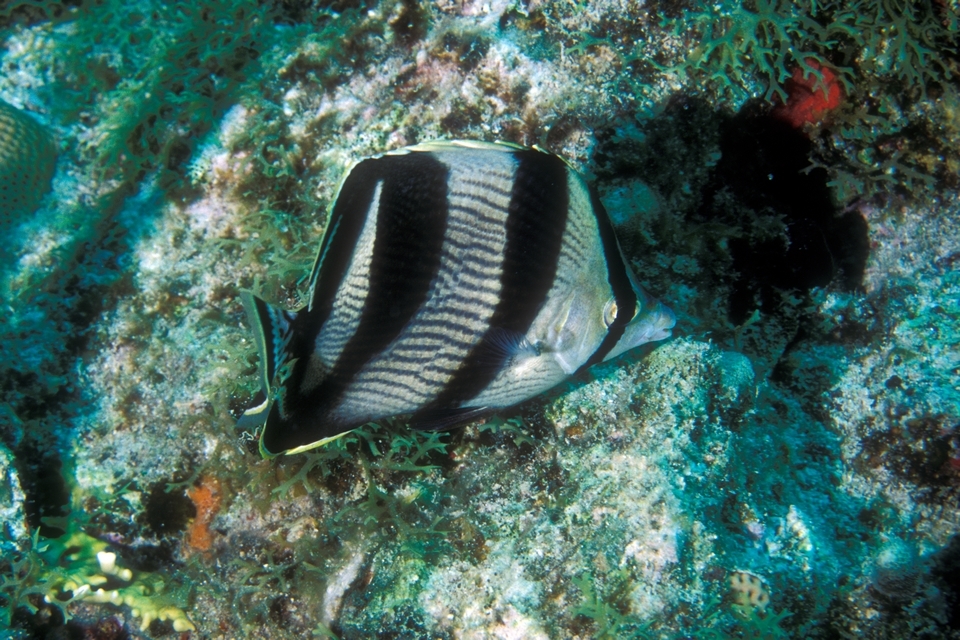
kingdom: Animalia
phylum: Chordata
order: Perciformes
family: Chaetodontidae
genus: Chaetodon
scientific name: Chaetodon striatus
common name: Banded butterflyfish
